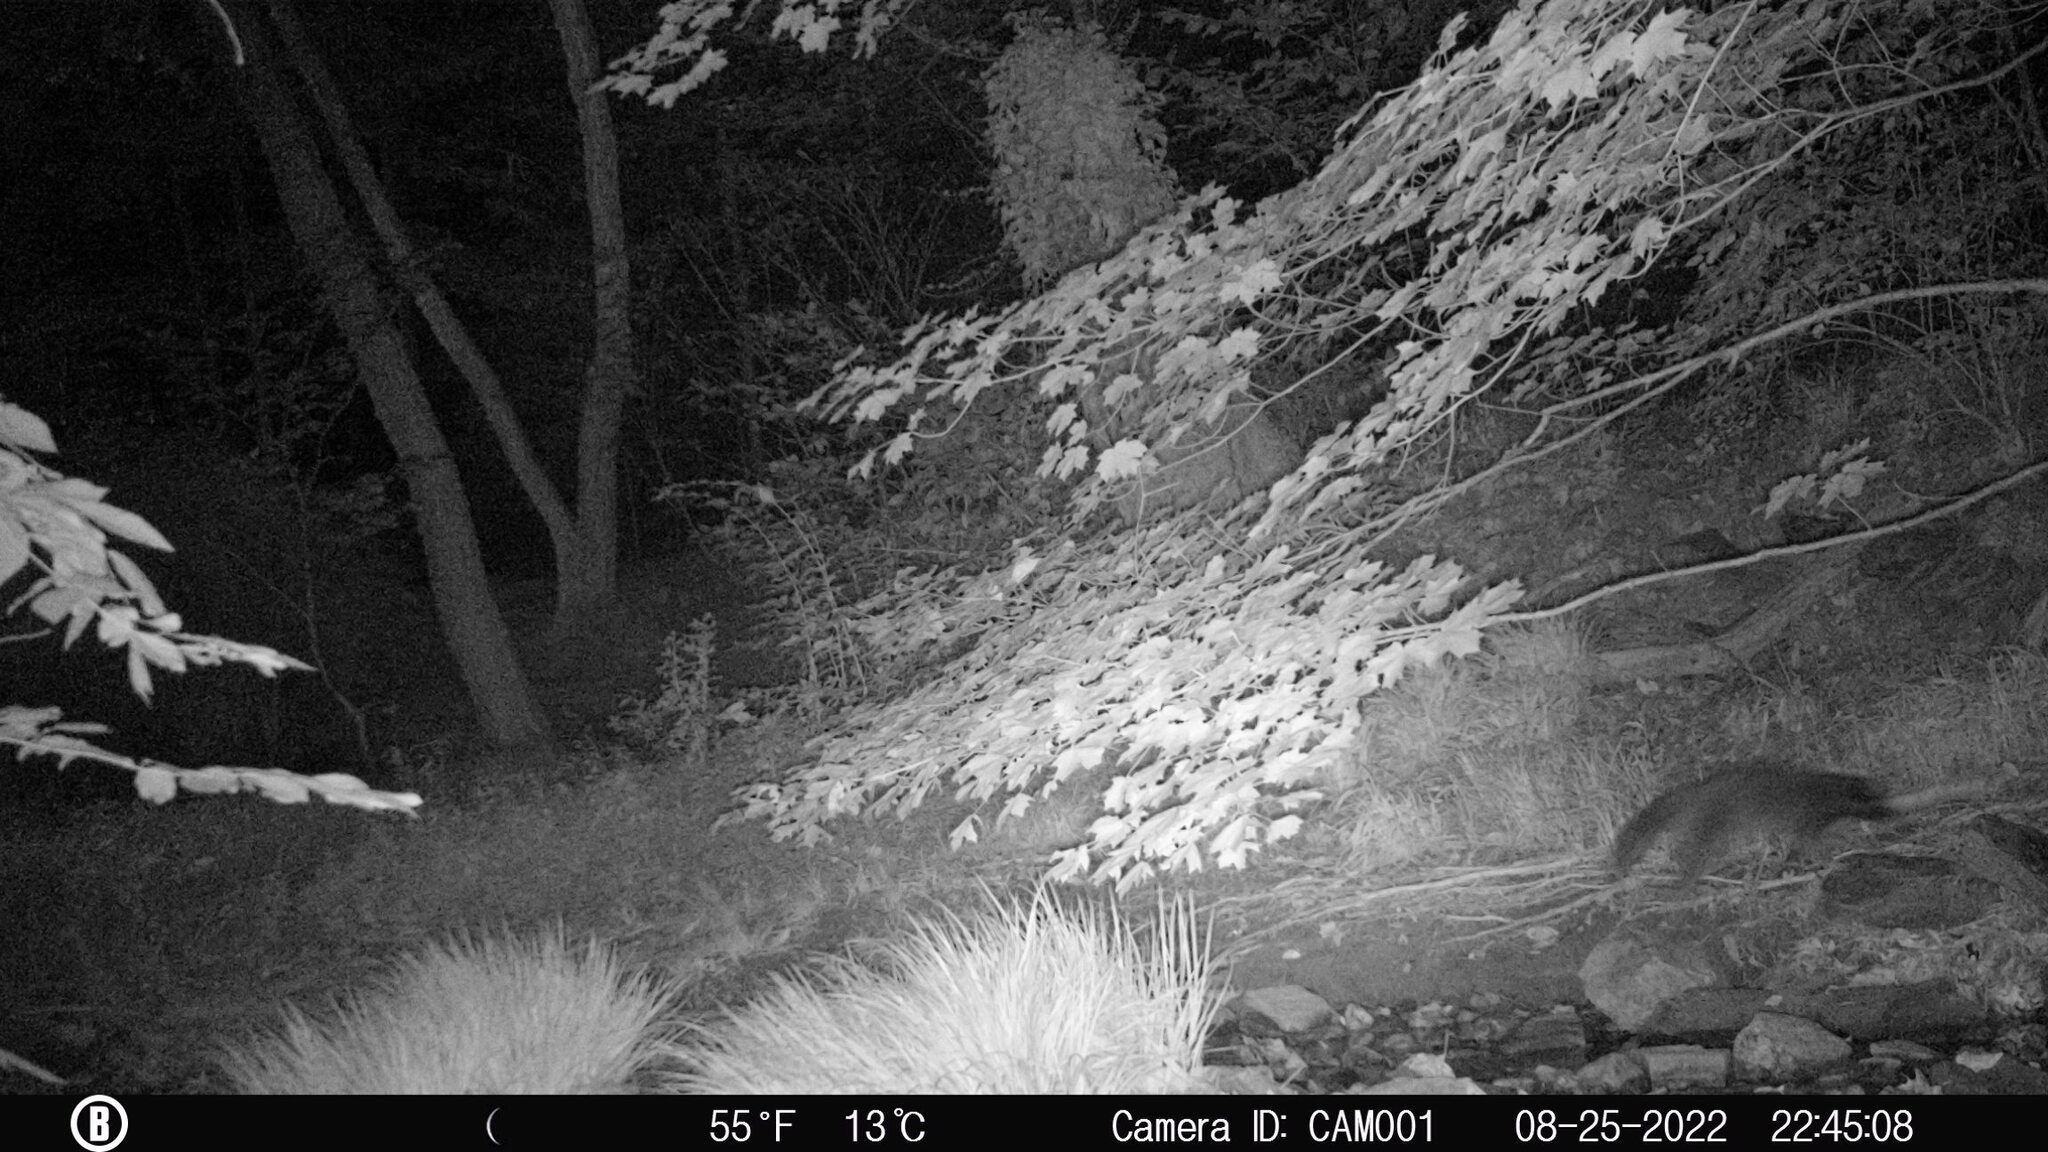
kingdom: Animalia
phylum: Chordata
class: Mammalia
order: Carnivora
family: Procyonidae
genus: Procyon
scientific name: Procyon lotor
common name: Raccoon
